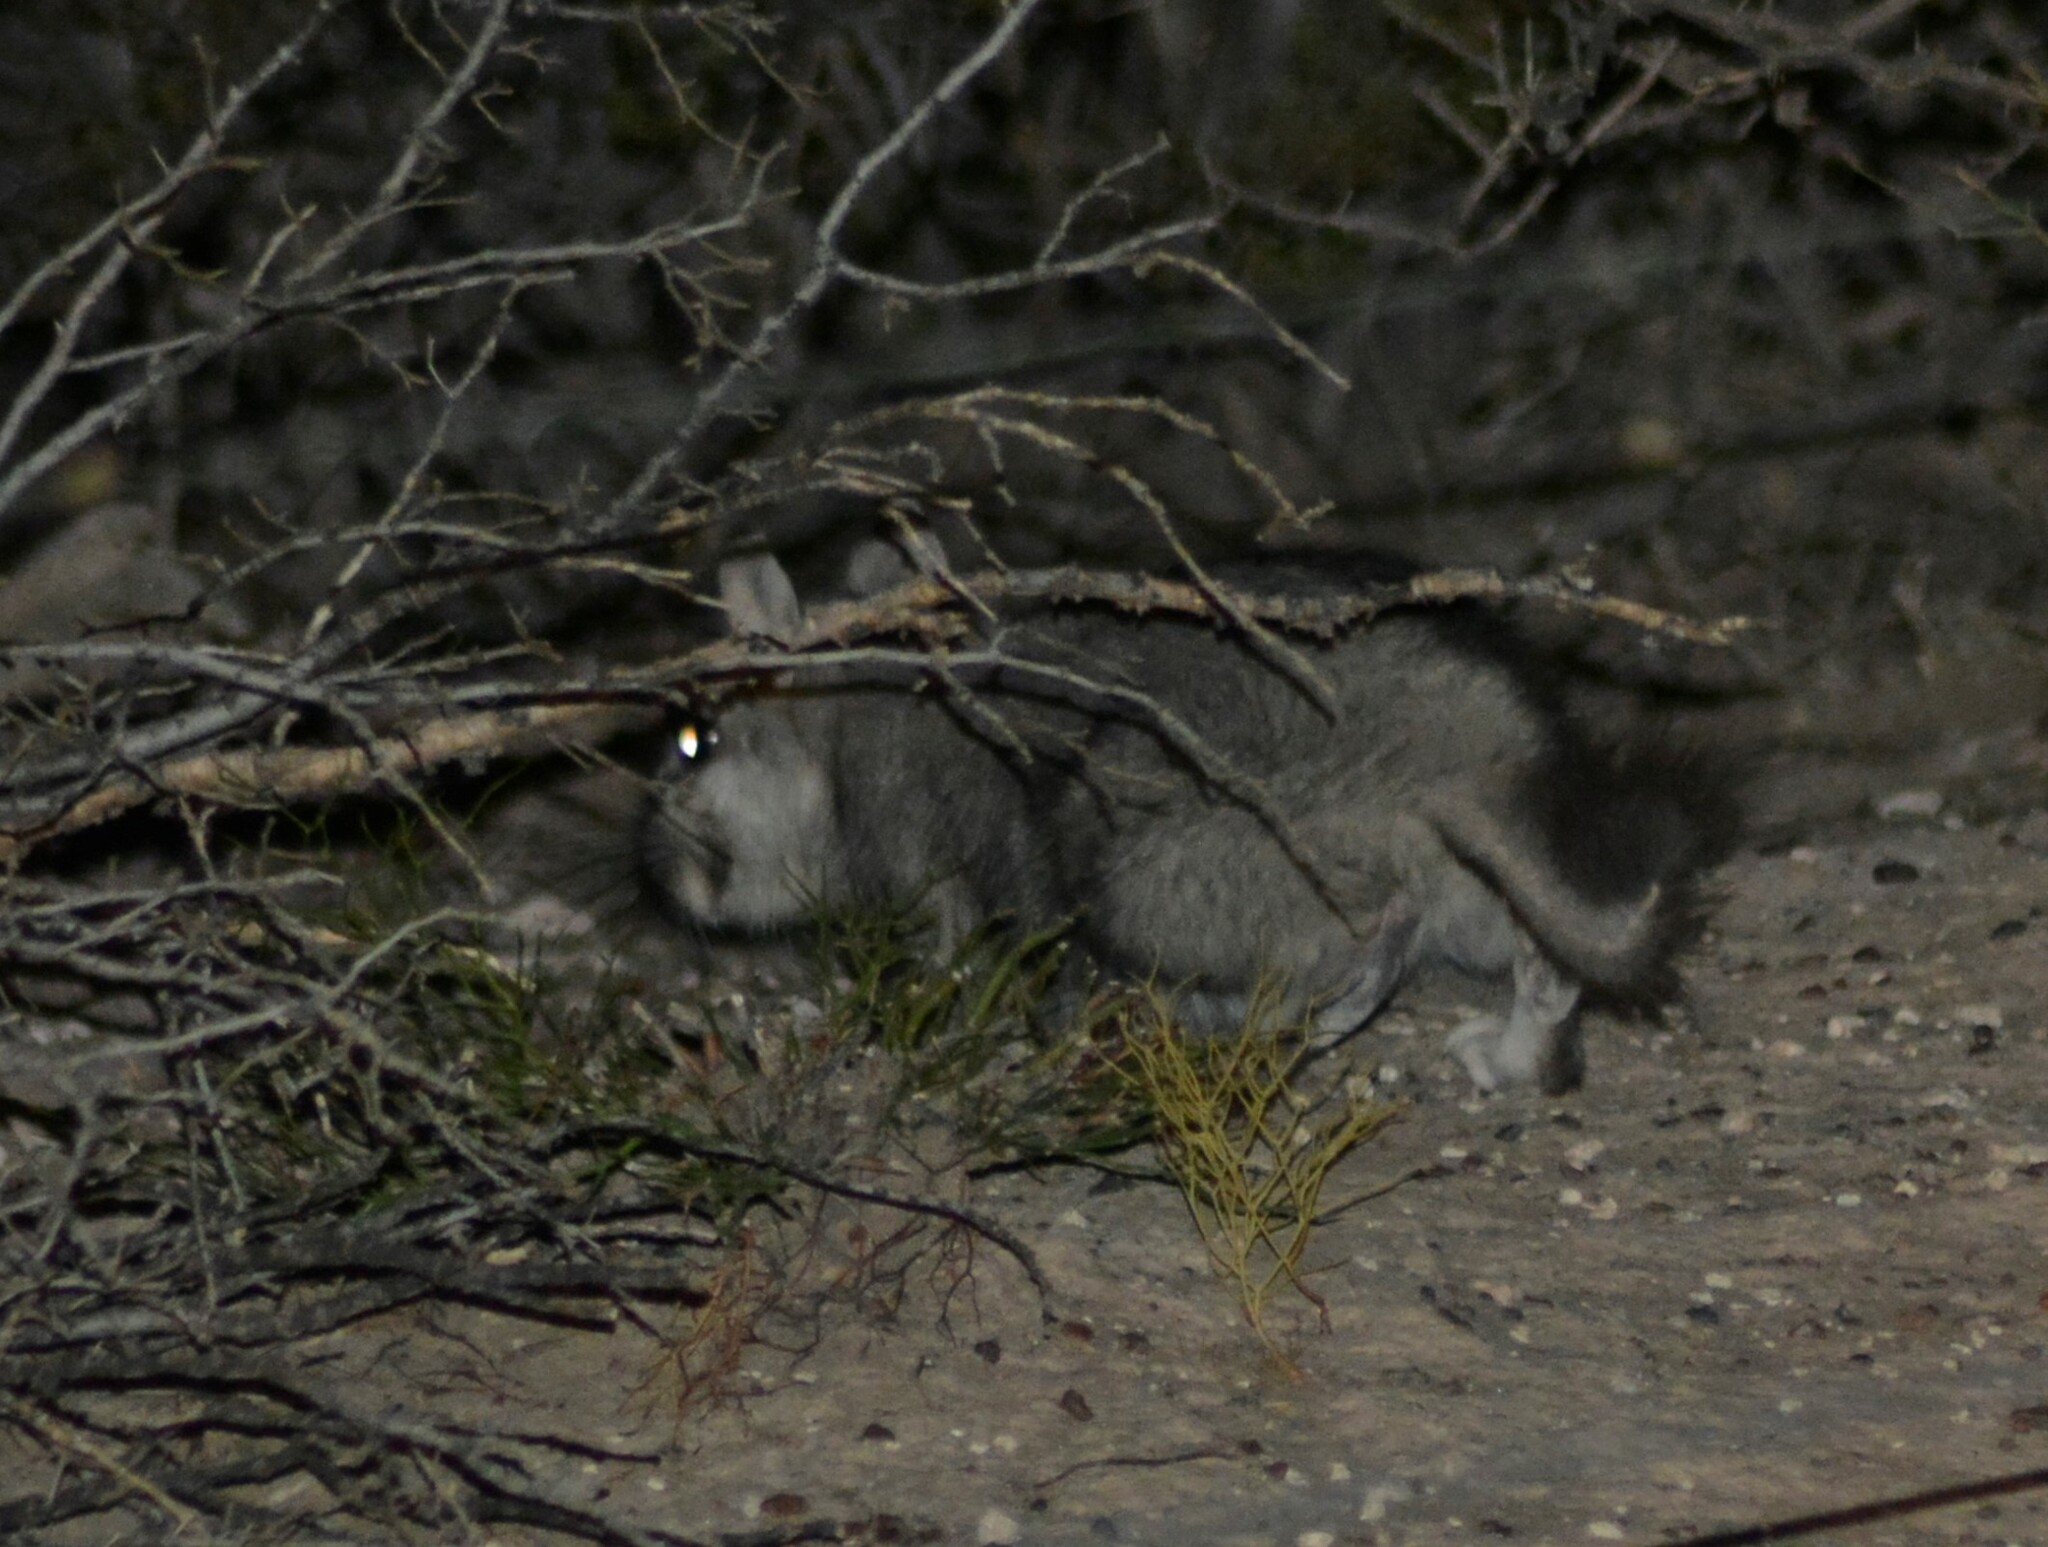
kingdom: Animalia
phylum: Chordata
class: Mammalia
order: Rodentia
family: Chinchillidae
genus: Lagostomus
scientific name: Lagostomus maximus
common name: Plains viscacha
